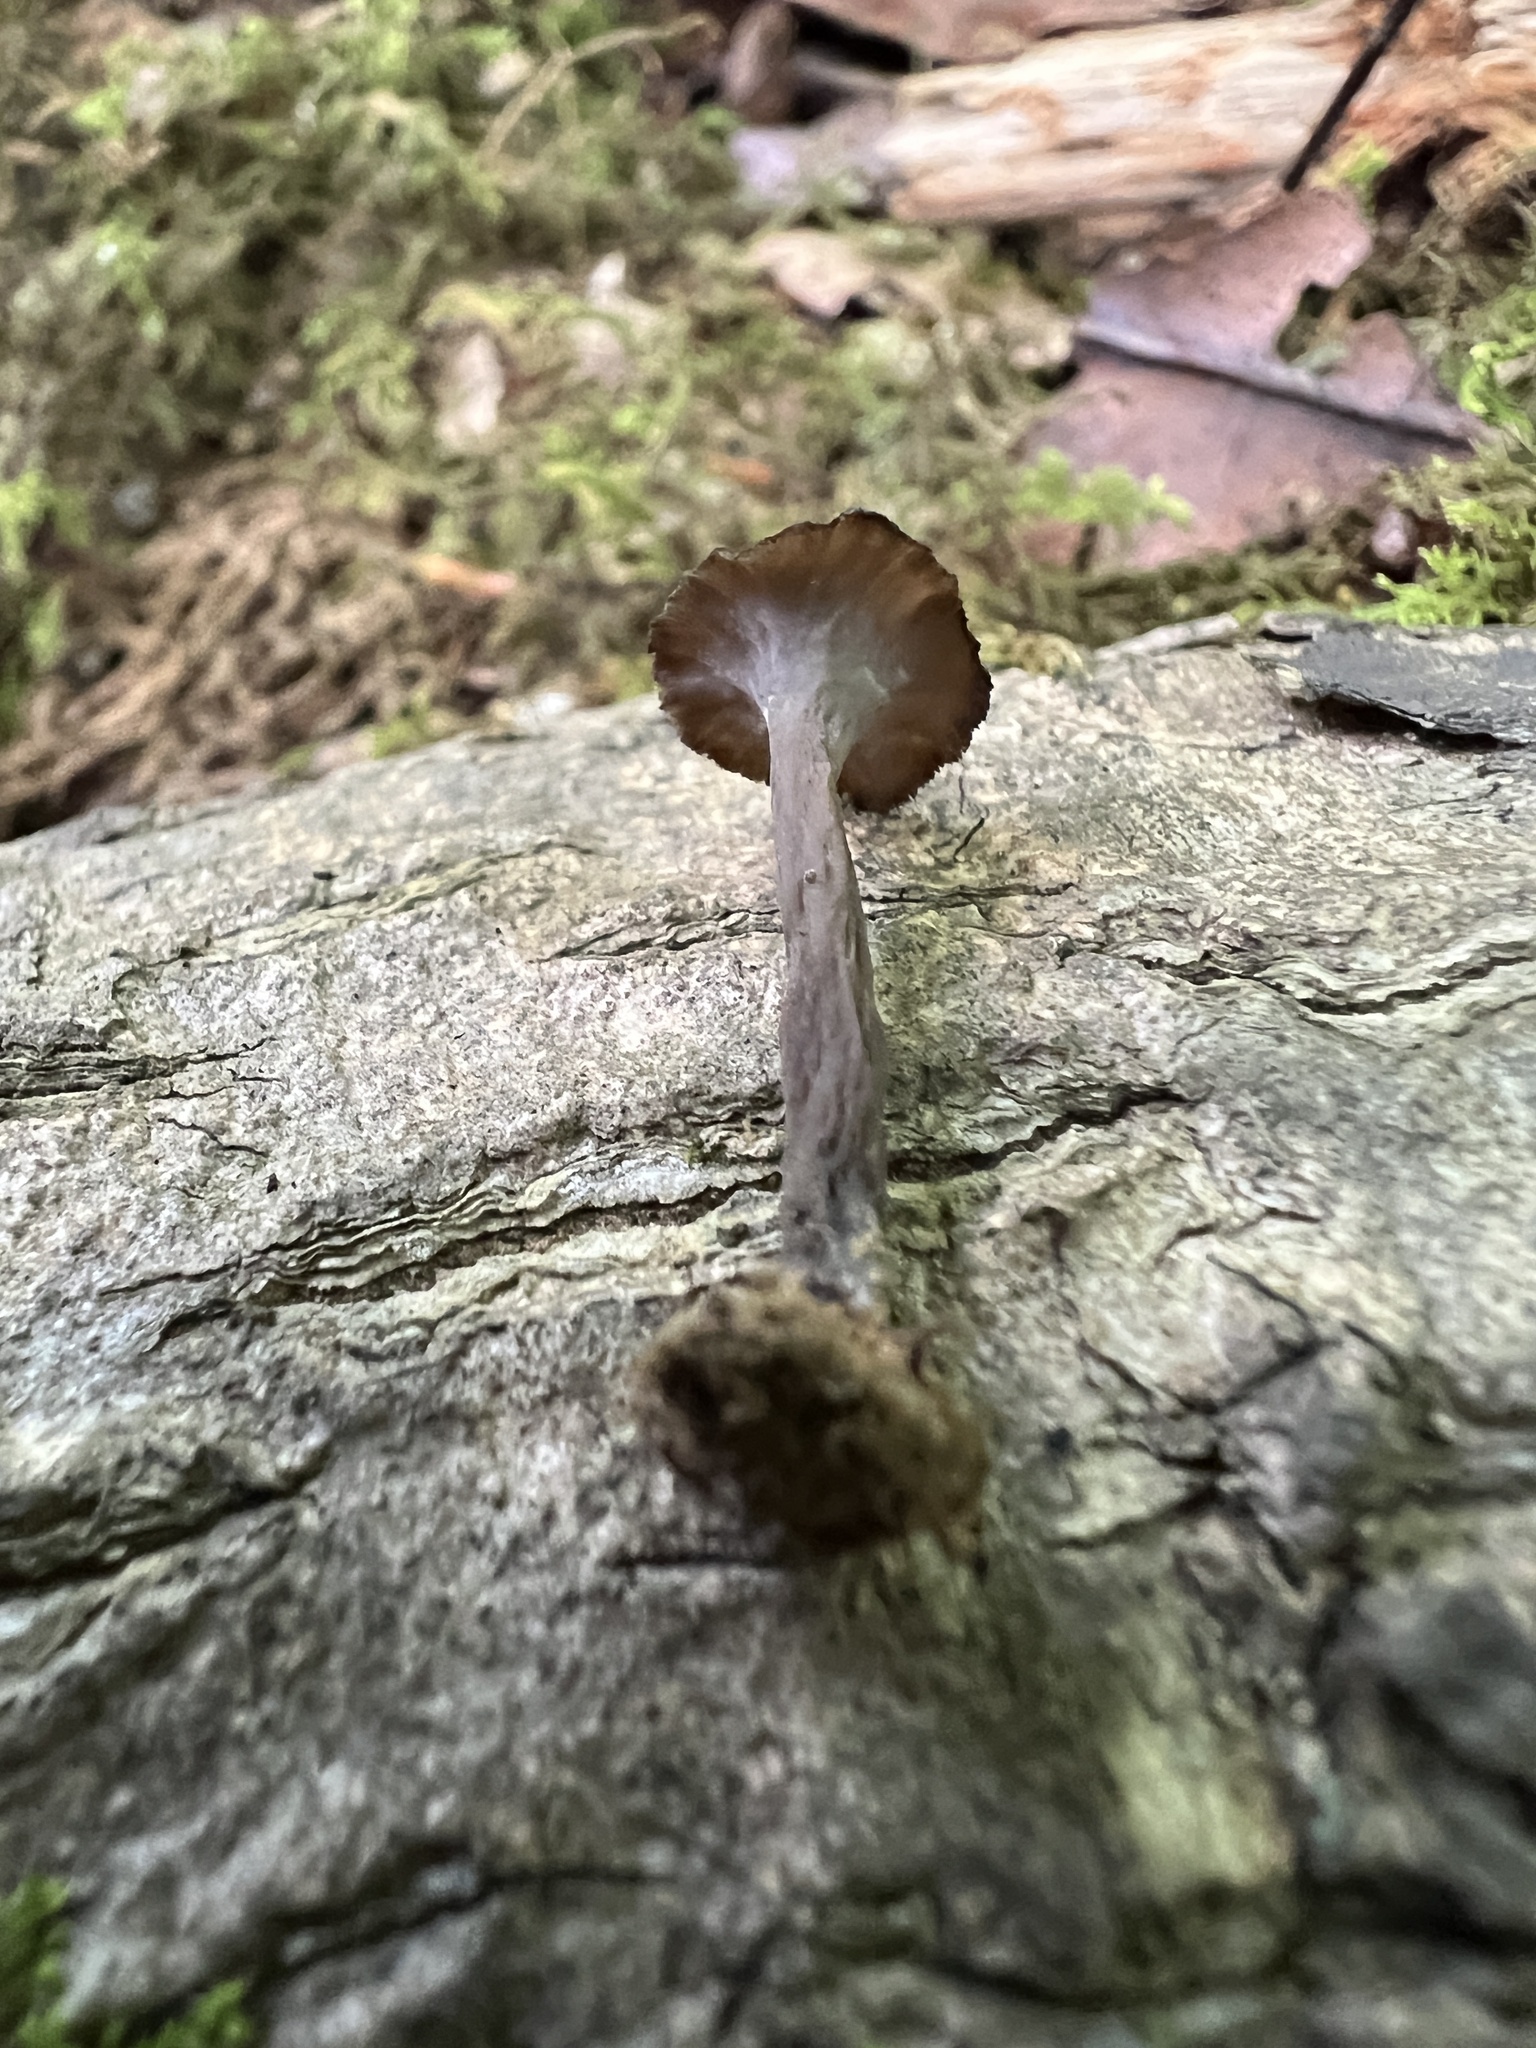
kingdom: Fungi
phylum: Basidiomycota
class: Agaricomycetes
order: Cantharellales
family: Hydnaceae
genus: Pseudocraterellus
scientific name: Pseudocraterellus calyculus
